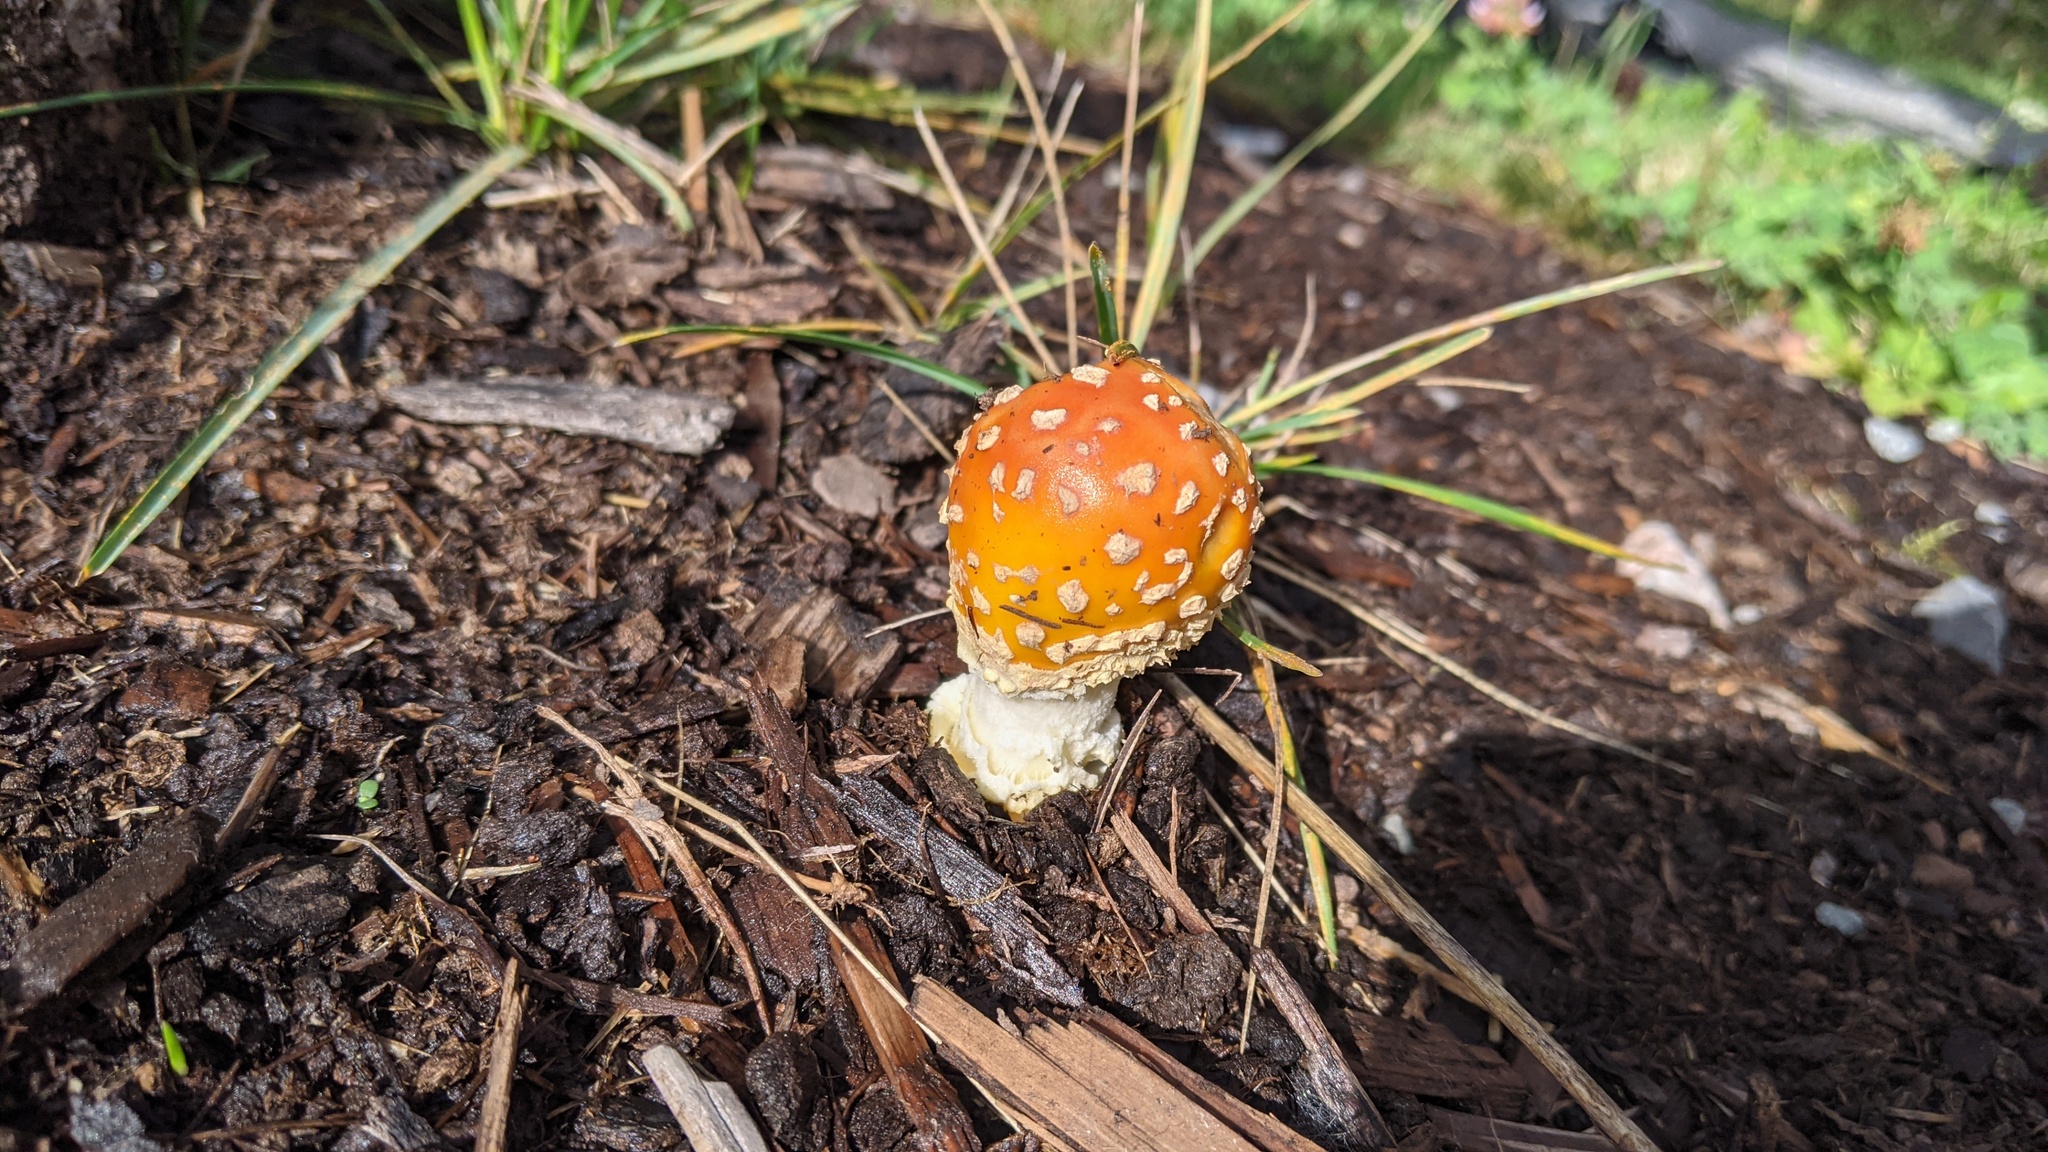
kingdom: Fungi
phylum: Basidiomycota
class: Agaricomycetes
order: Agaricales
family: Amanitaceae
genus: Amanita
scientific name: Amanita muscaria
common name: Fly agaric
